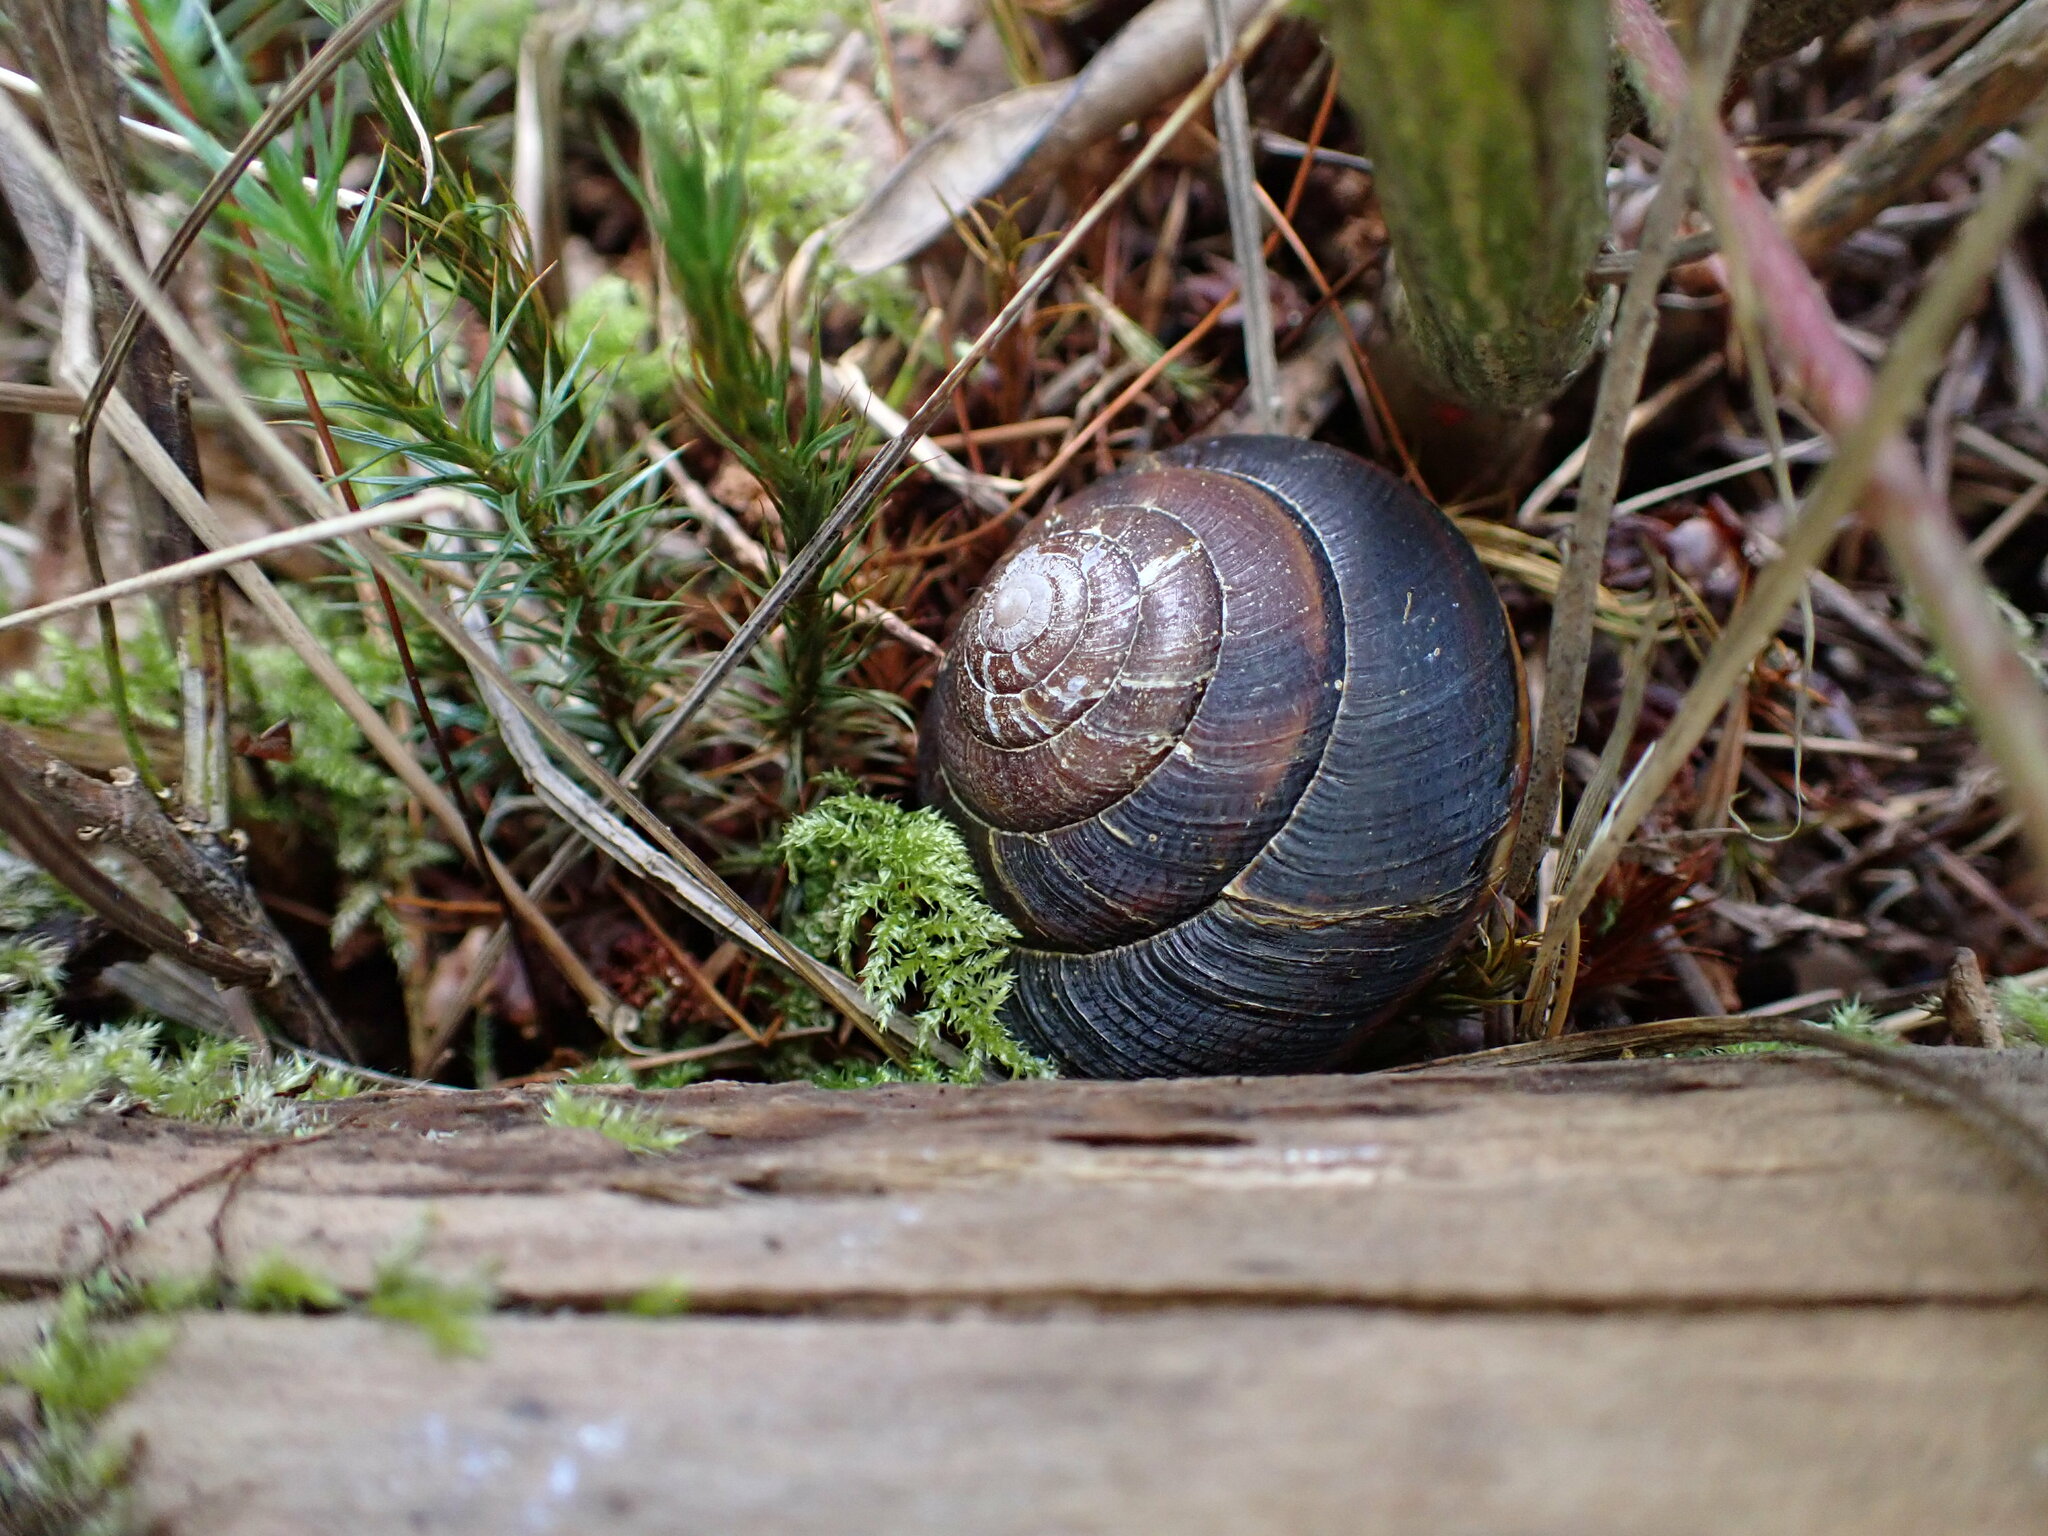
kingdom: Animalia
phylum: Mollusca
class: Gastropoda
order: Stylommatophora
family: Xanthonychidae
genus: Monadenia
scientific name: Monadenia fidelis
